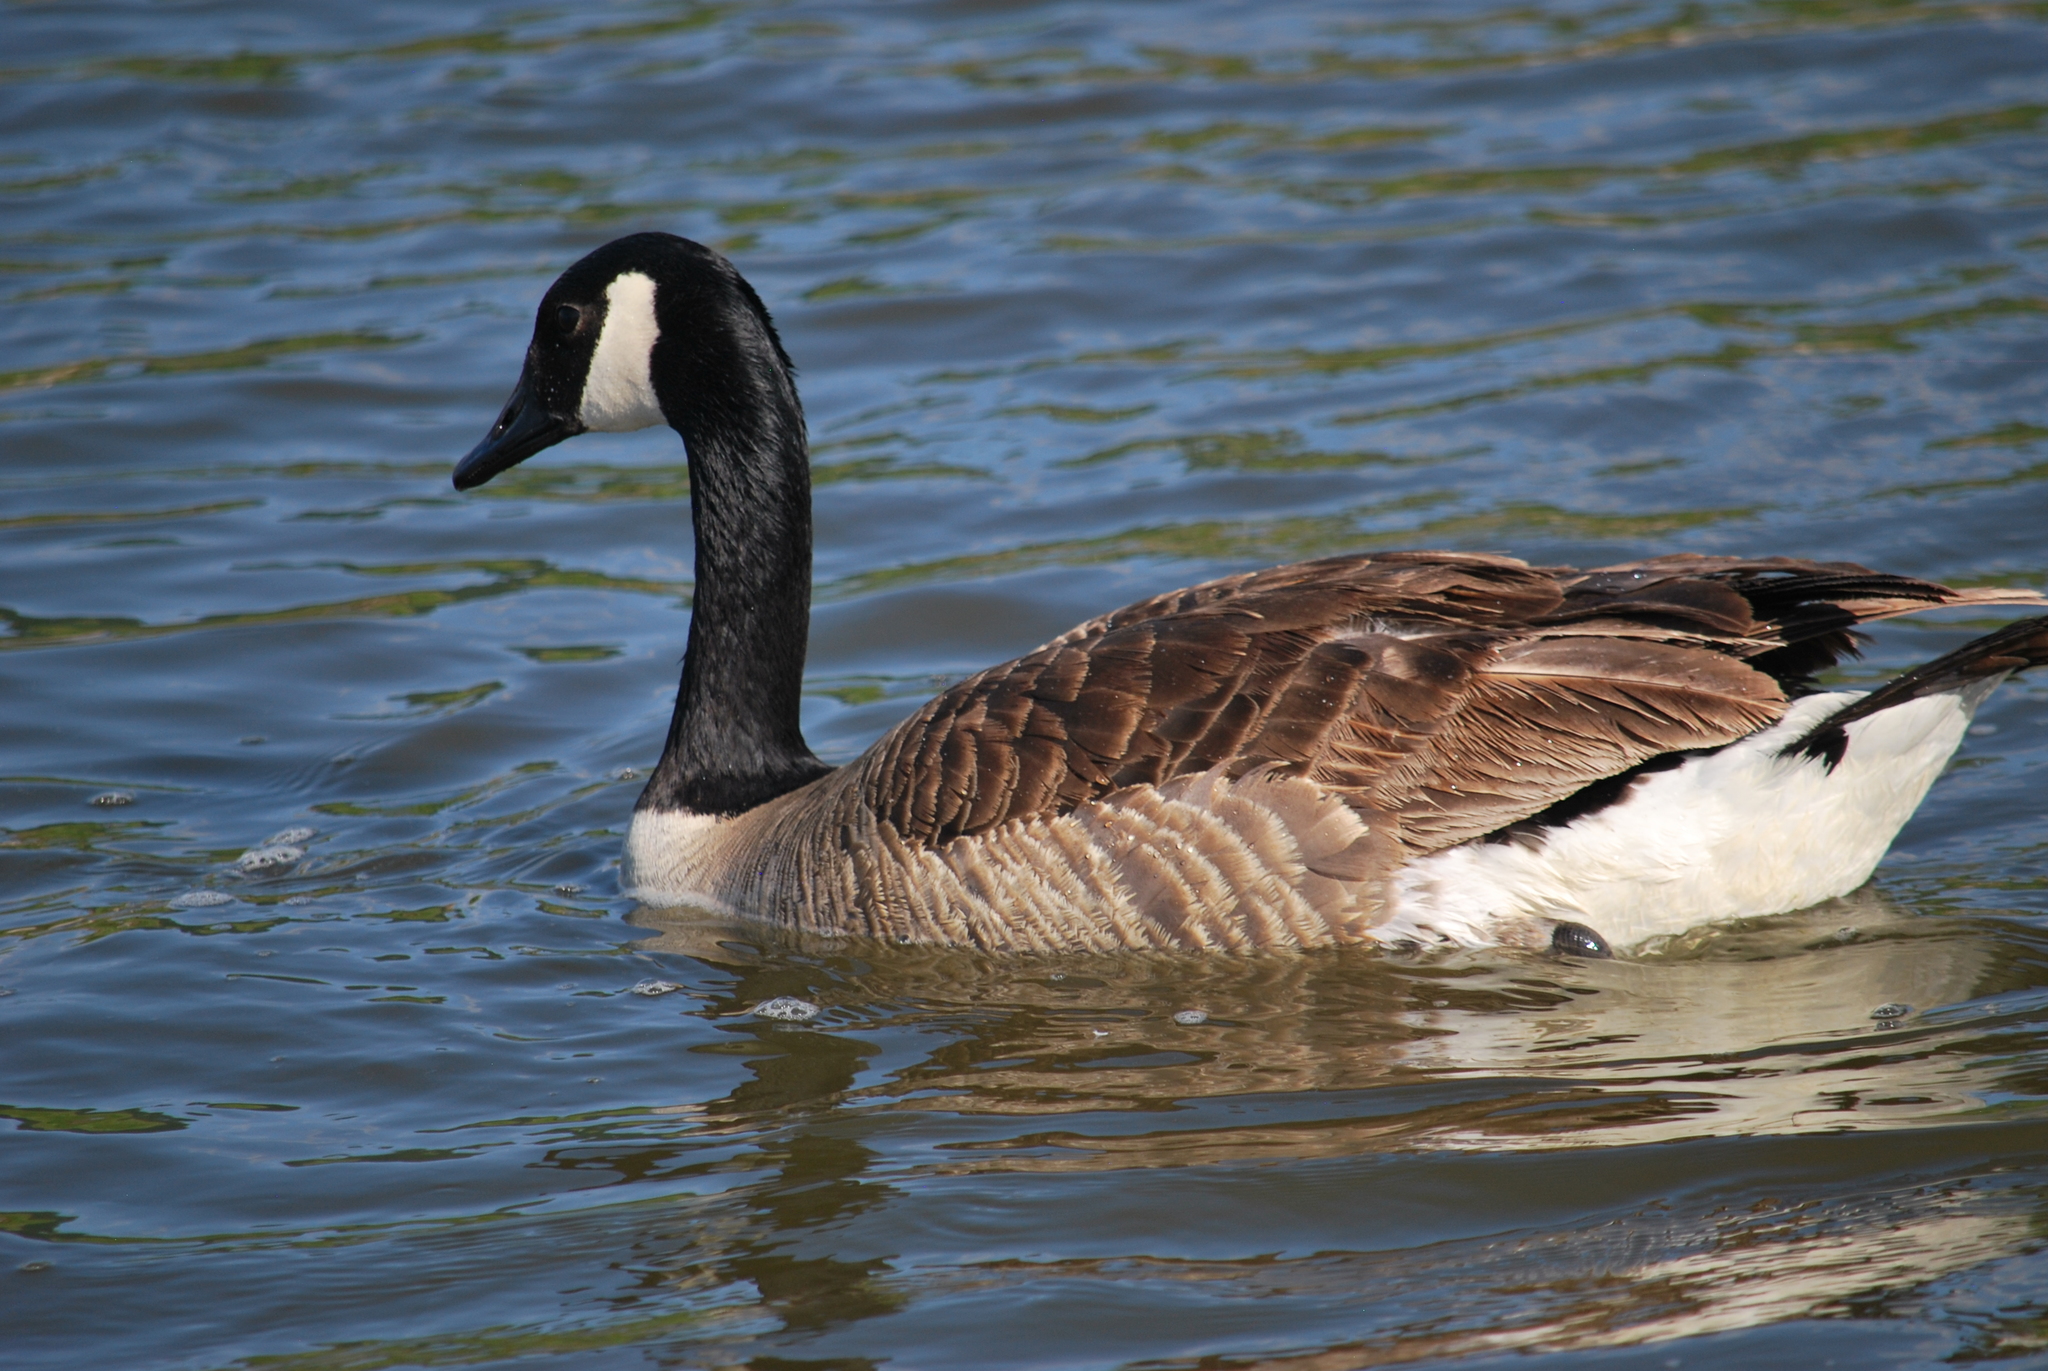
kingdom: Animalia
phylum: Chordata
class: Aves
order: Anseriformes
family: Anatidae
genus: Branta
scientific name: Branta canadensis
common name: Canada goose
